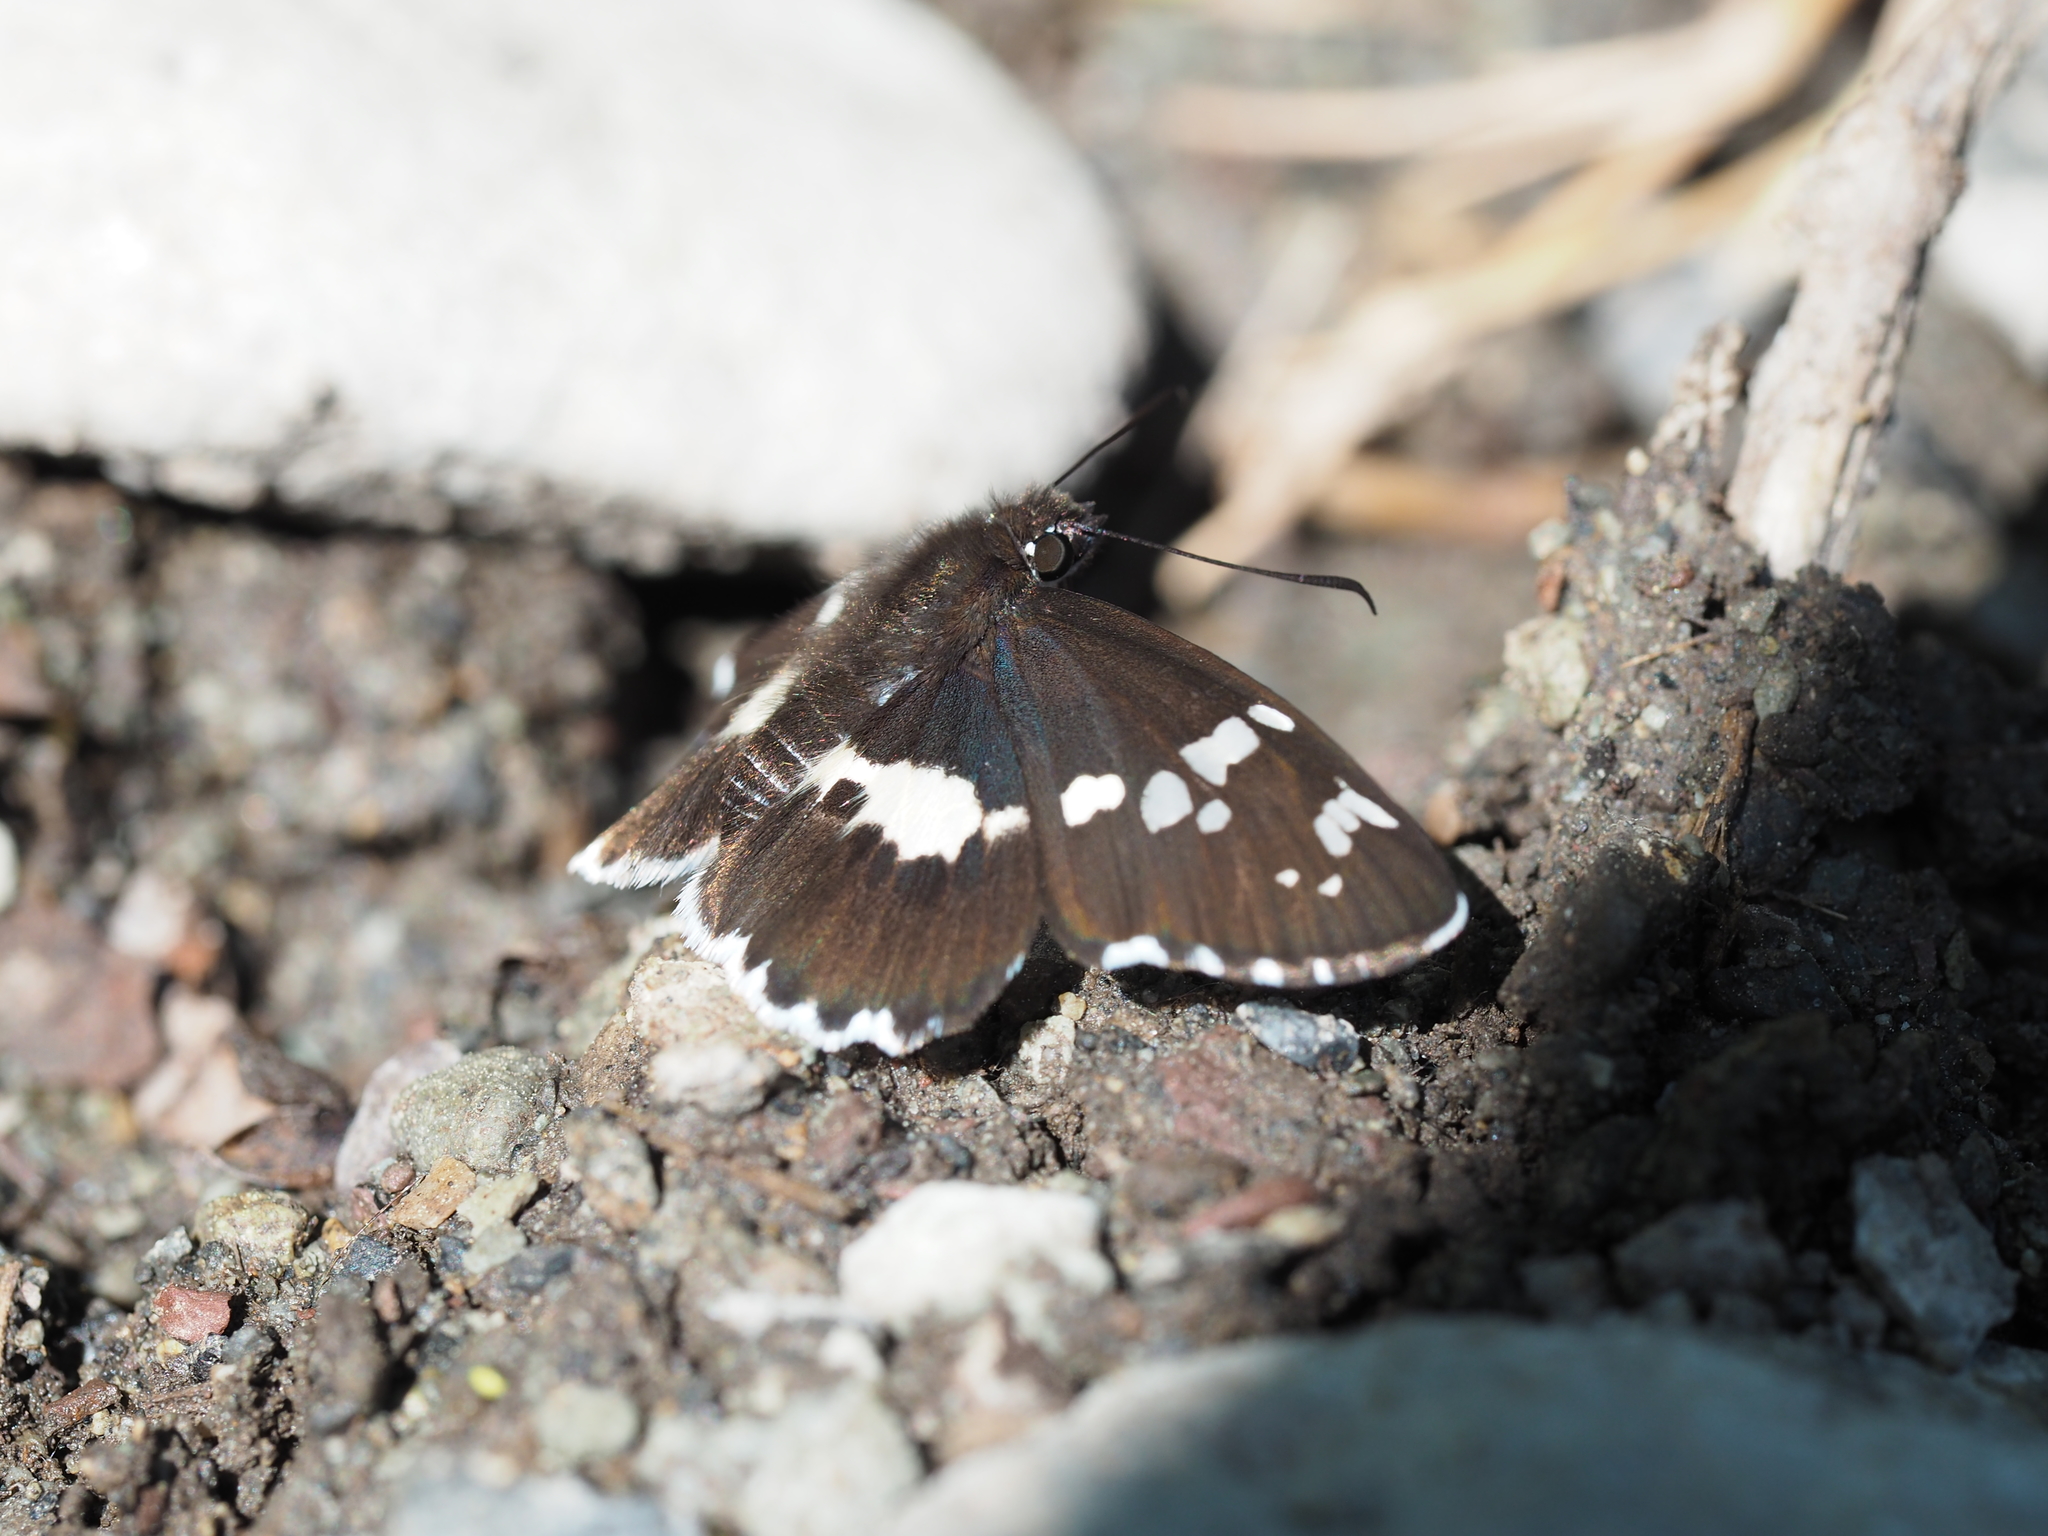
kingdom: Animalia
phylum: Arthropoda
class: Insecta
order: Lepidoptera
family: Hesperiidae
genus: Daimio
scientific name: Daimio tethys
